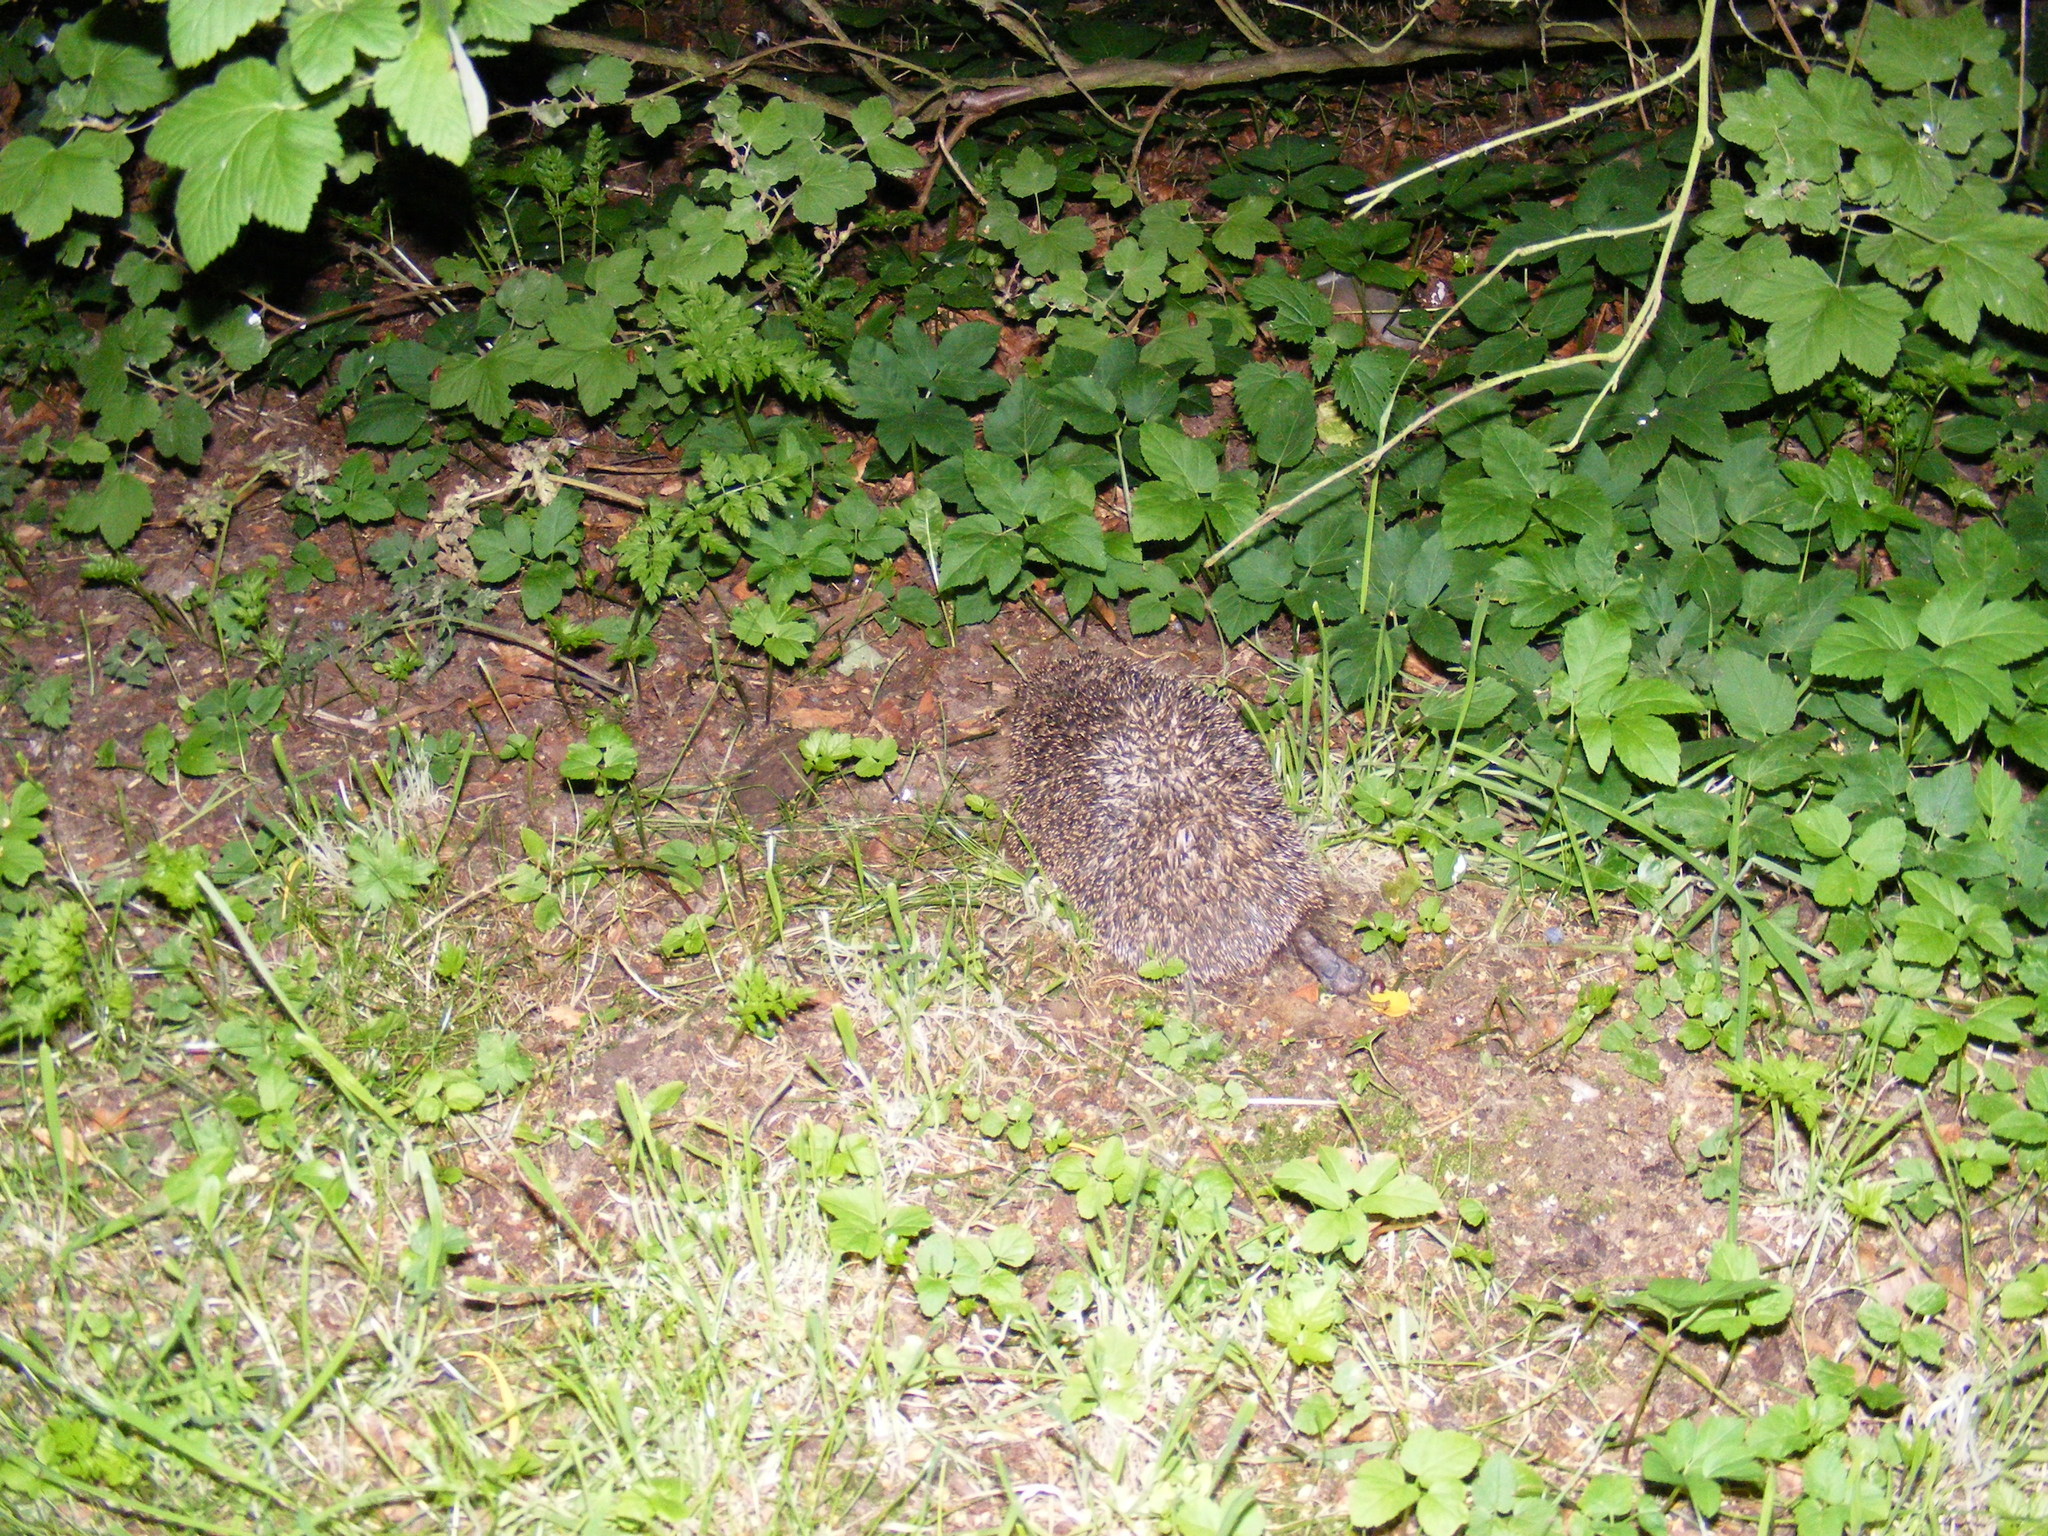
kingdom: Animalia
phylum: Chordata
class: Mammalia
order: Erinaceomorpha
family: Erinaceidae
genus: Erinaceus
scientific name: Erinaceus europaeus
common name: West european hedgehog
